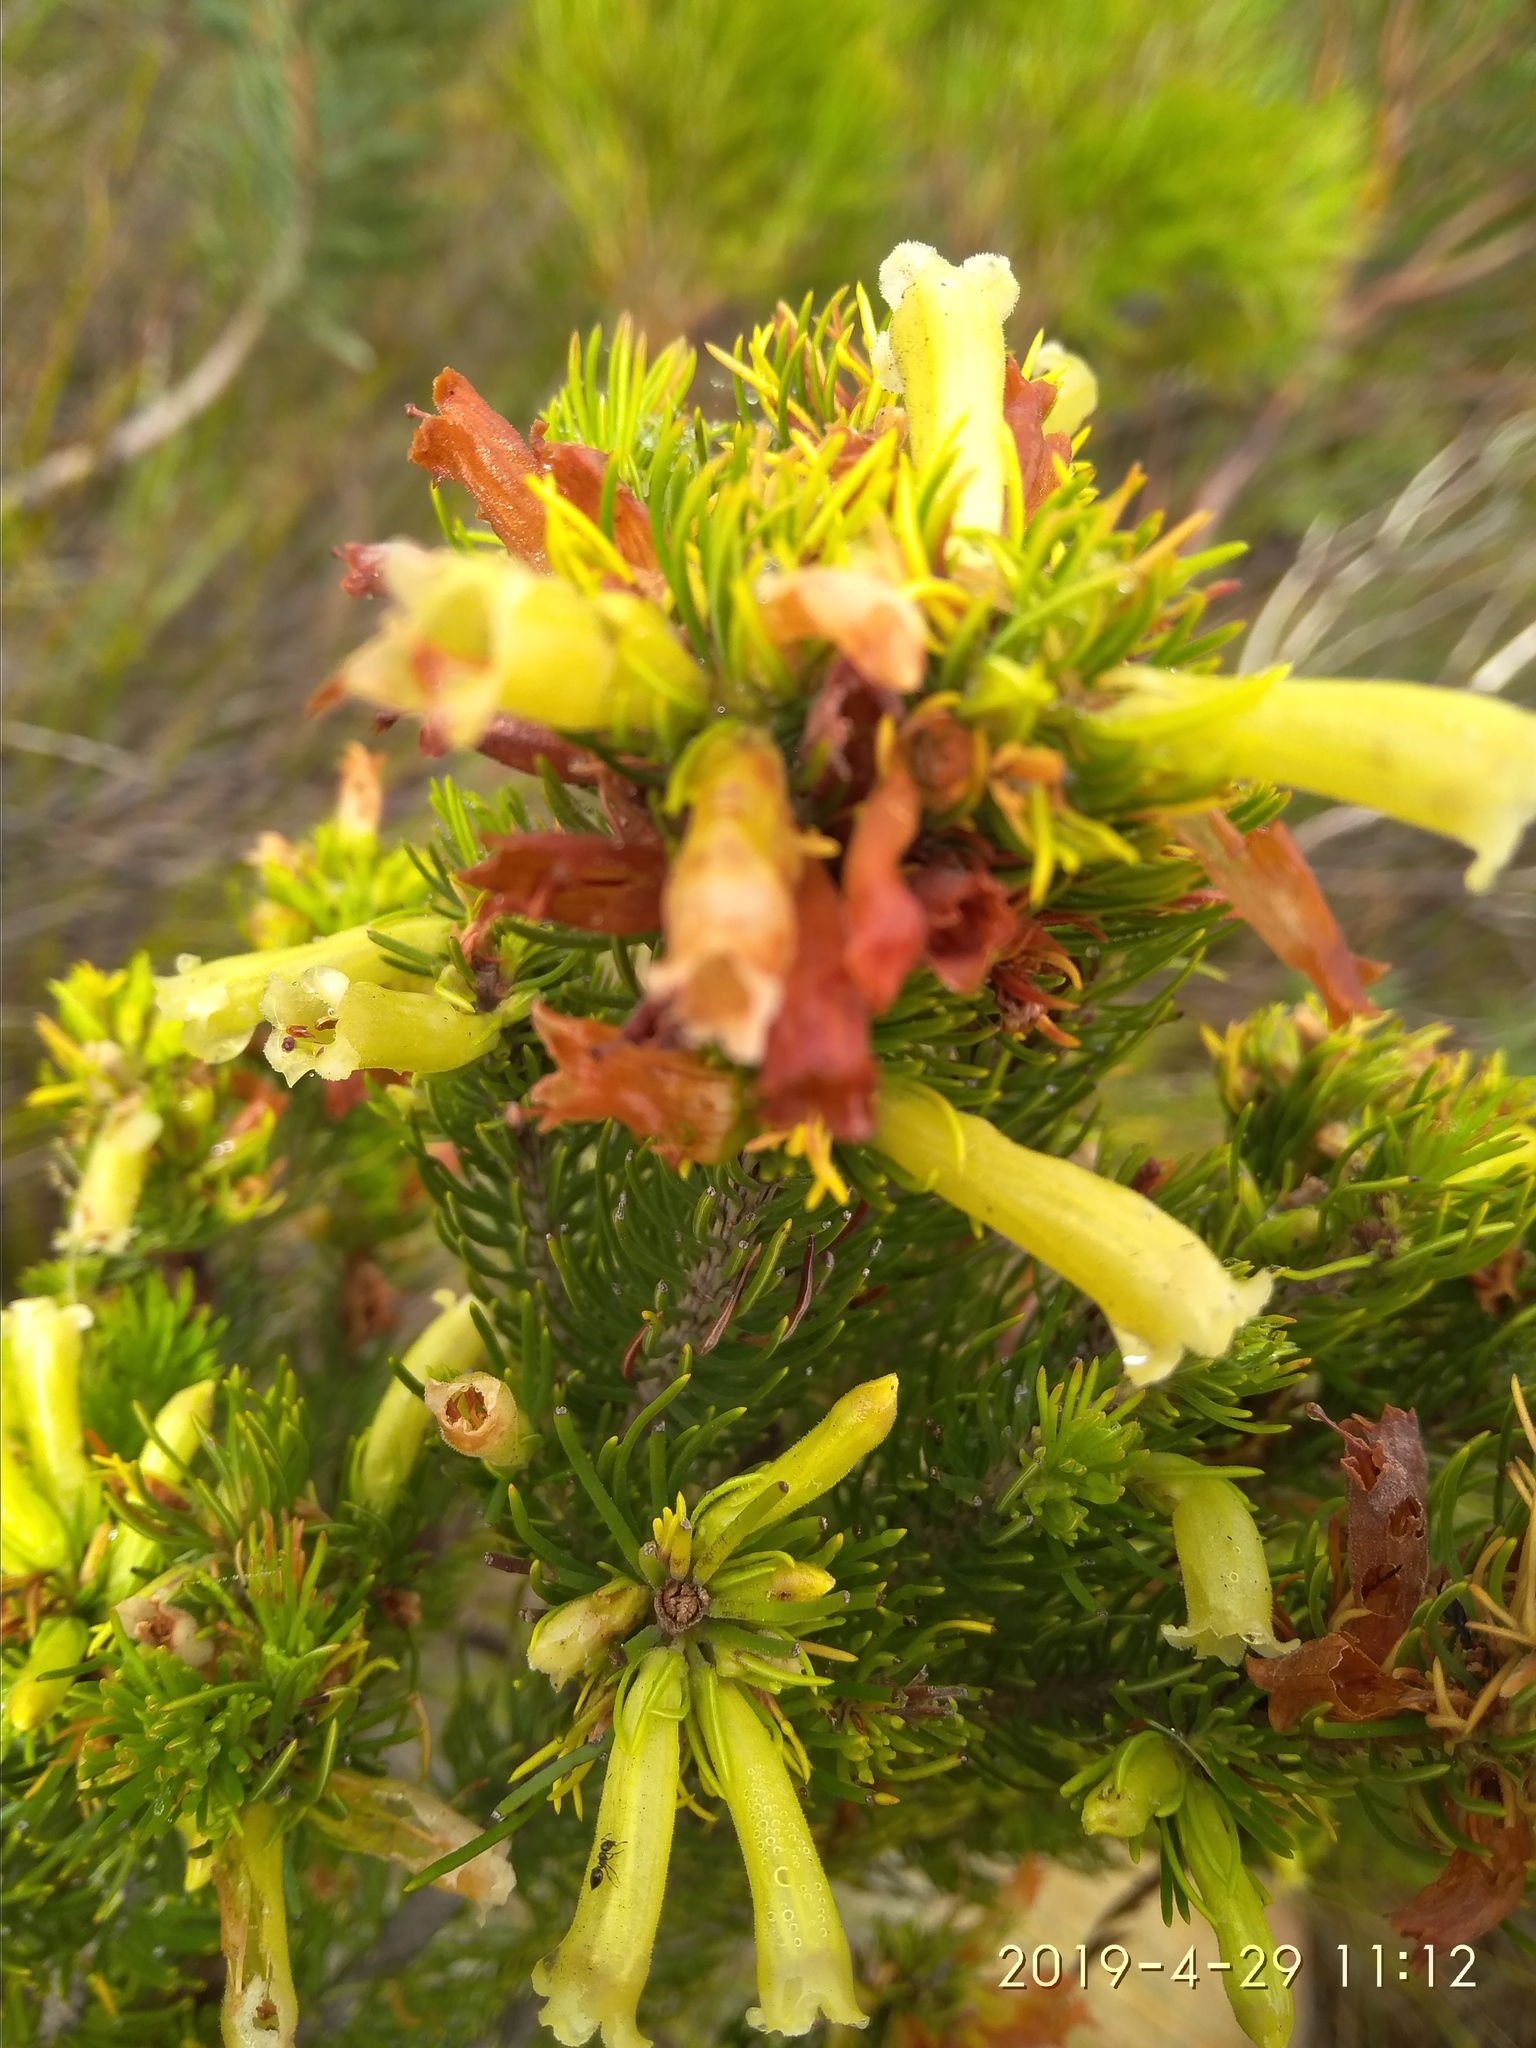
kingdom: Plantae
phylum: Tracheophyta
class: Magnoliopsida
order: Ericales
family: Ericaceae
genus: Erica
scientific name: Erica viscaria
